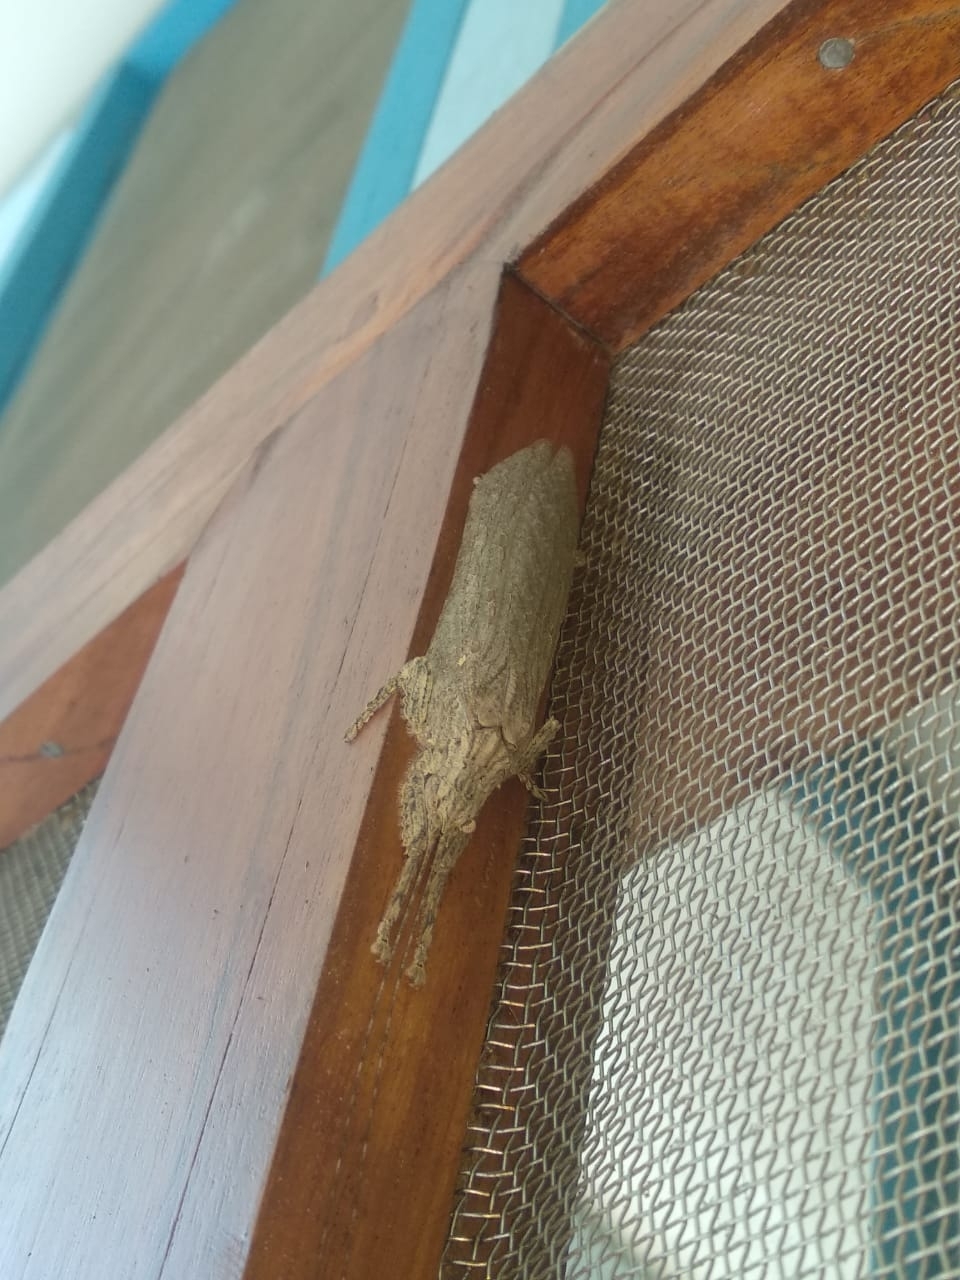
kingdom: Animalia
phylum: Arthropoda
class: Insecta
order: Orthoptera
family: Tettigoniidae
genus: Sathrophyllia
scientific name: Sathrophyllia rugosa
